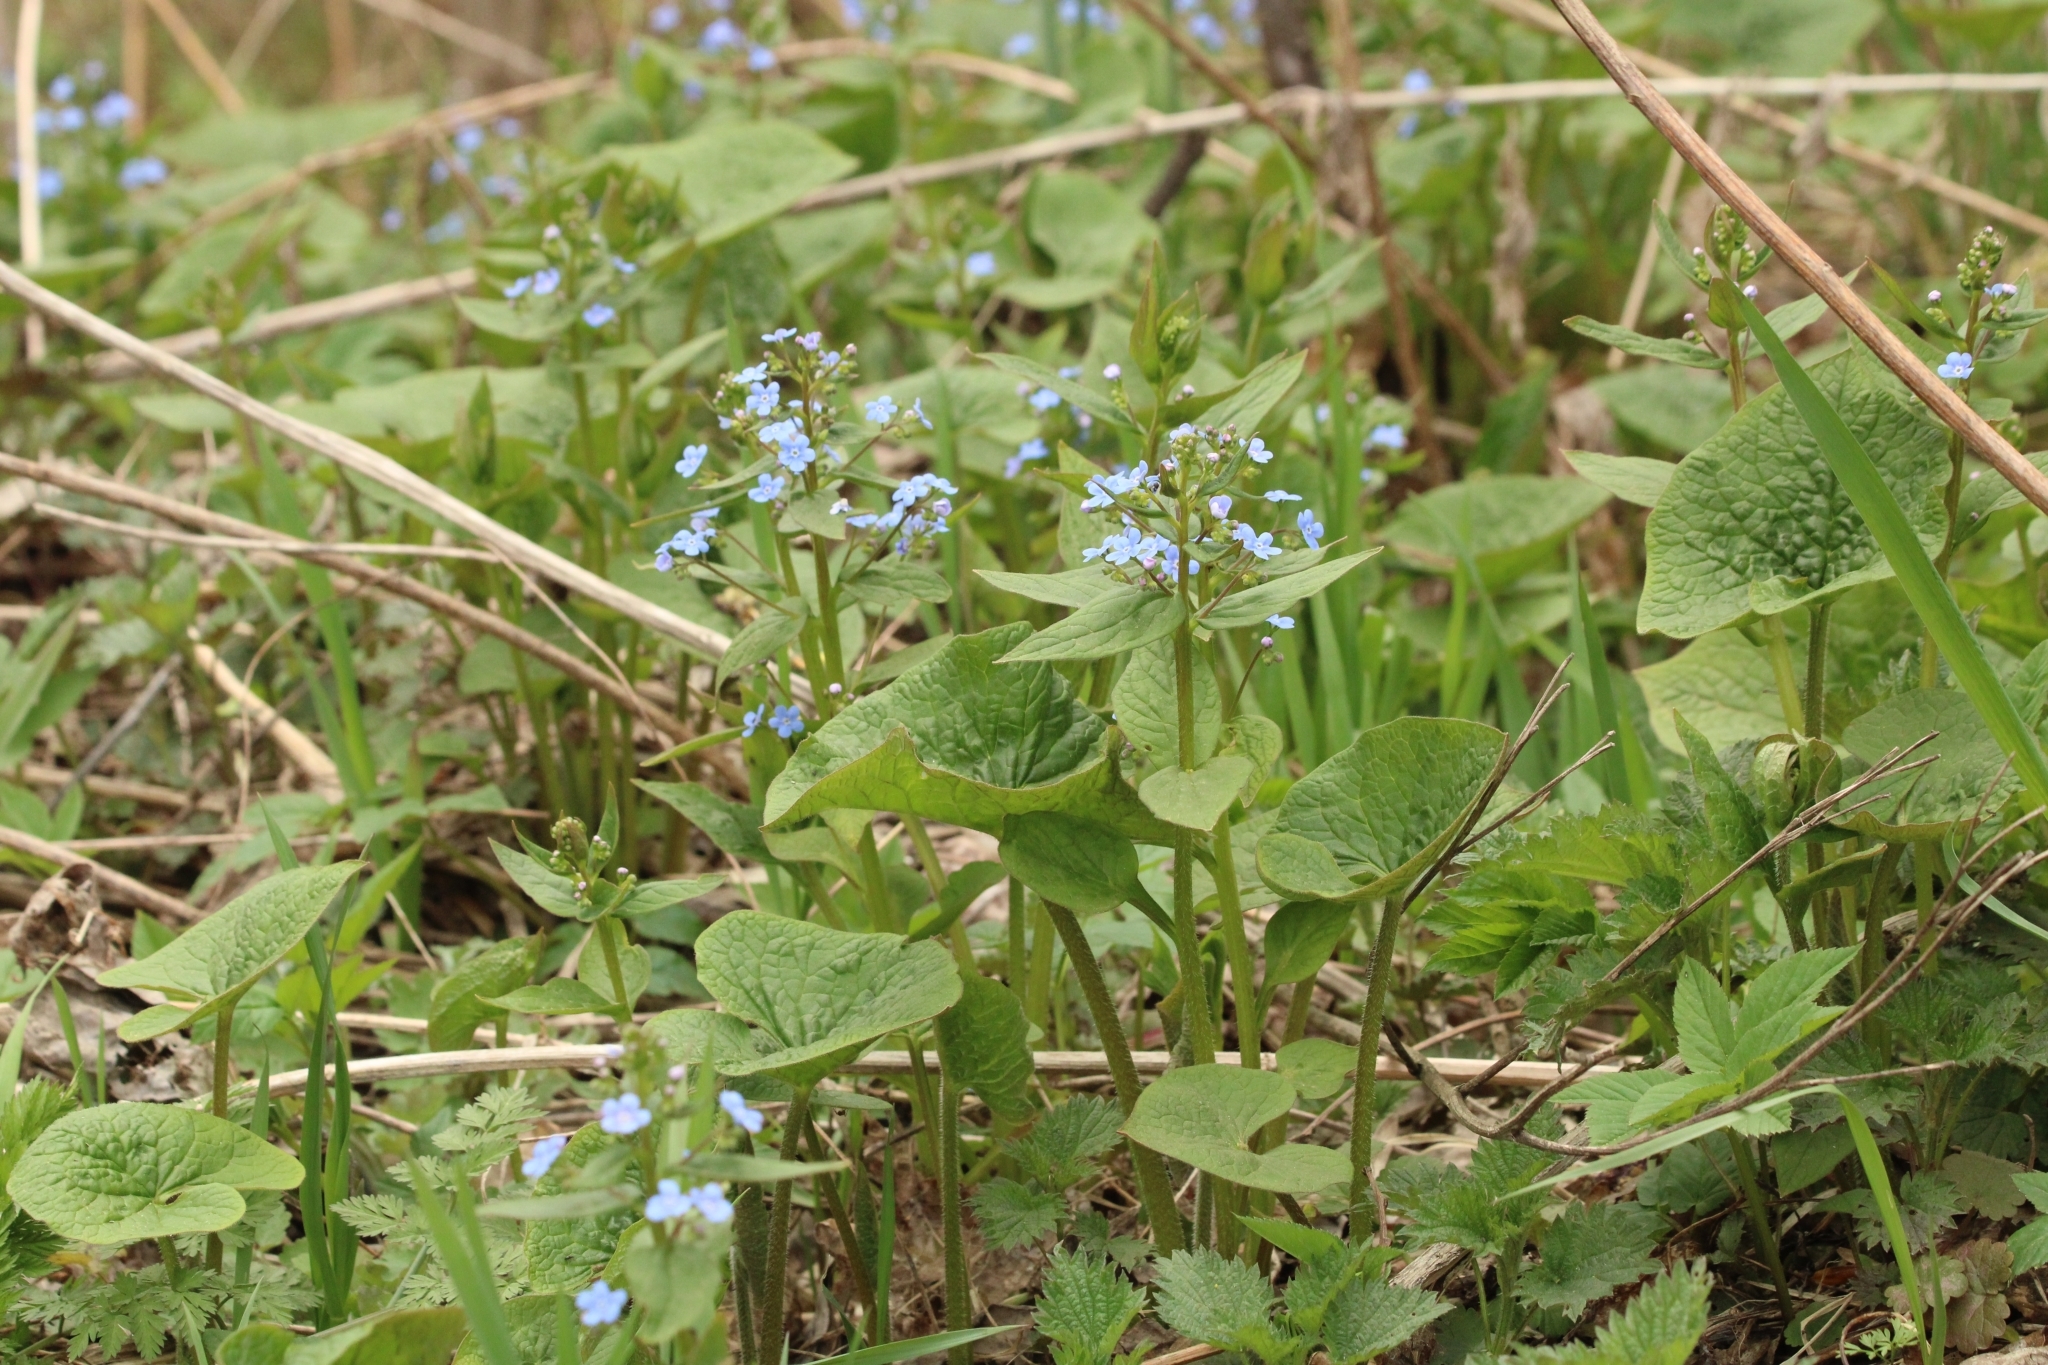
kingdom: Plantae
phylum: Tracheophyta
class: Magnoliopsida
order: Boraginales
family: Boraginaceae
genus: Brunnera
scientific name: Brunnera sibirica
